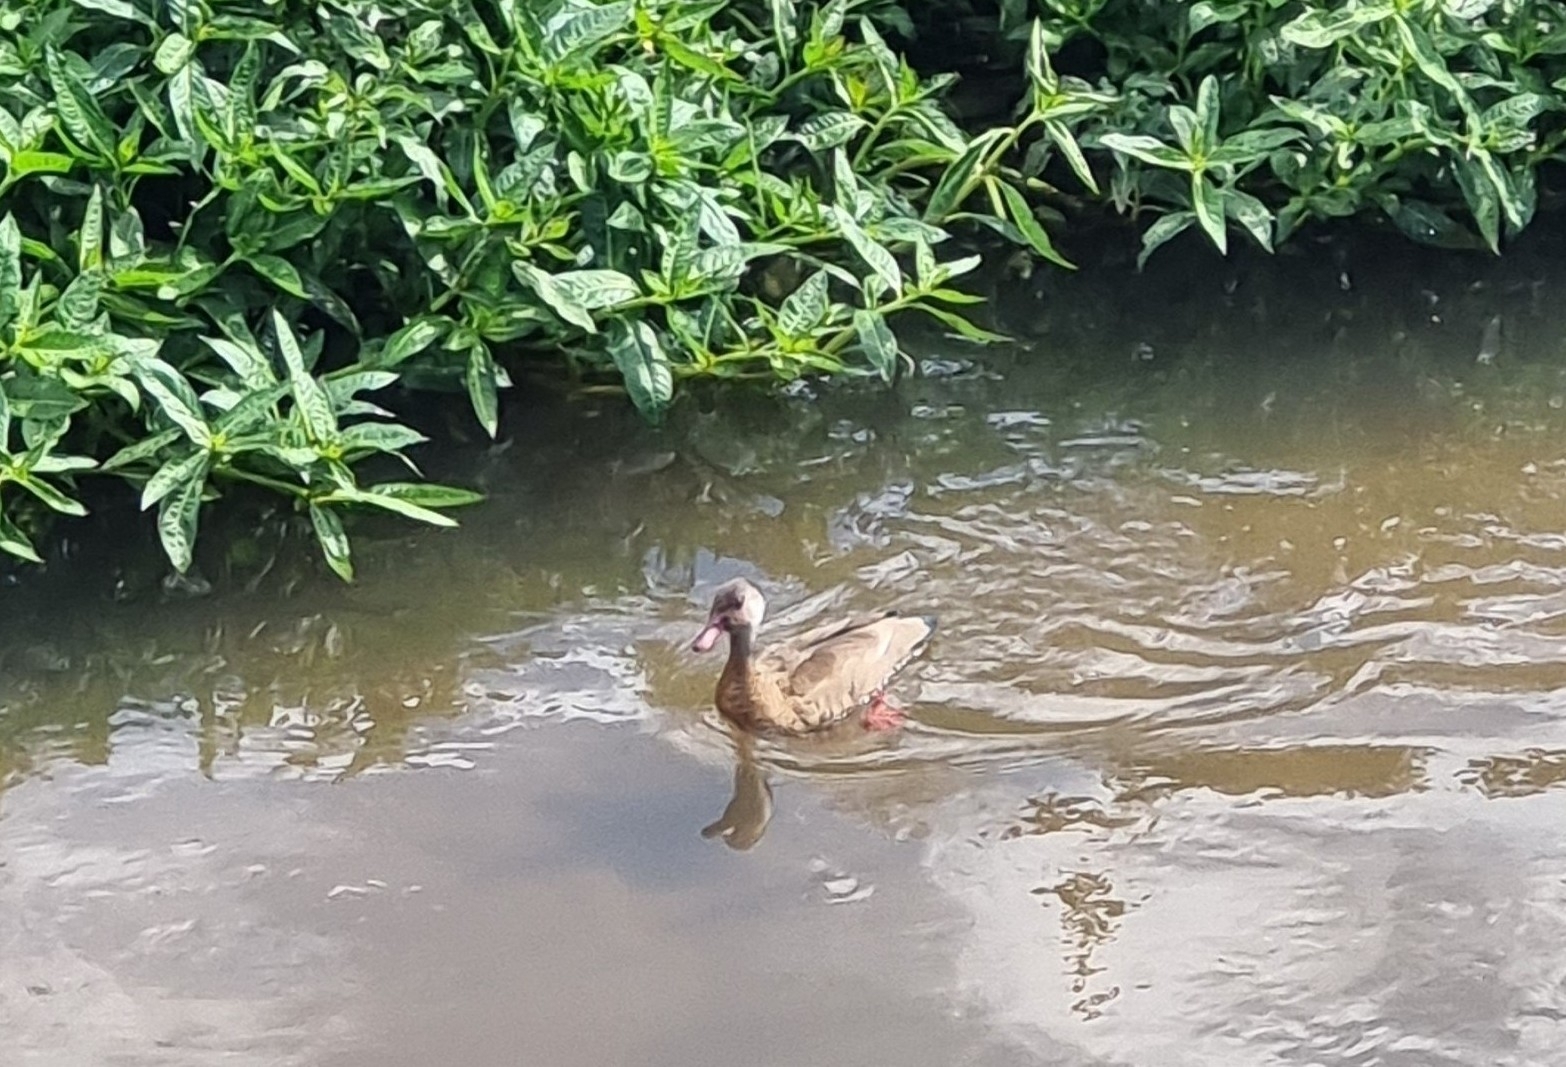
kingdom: Animalia
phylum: Chordata
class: Aves
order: Anseriformes
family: Anatidae
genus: Amazonetta
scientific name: Amazonetta brasiliensis
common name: Brazilian teal
